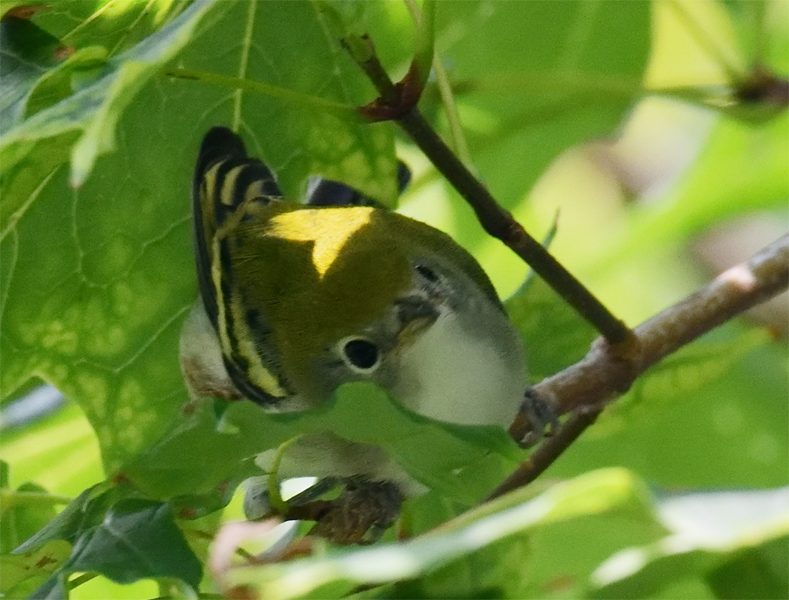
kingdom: Animalia
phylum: Chordata
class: Aves
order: Passeriformes
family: Parulidae
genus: Setophaga
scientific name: Setophaga pensylvanica
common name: Chestnut-sided warbler
